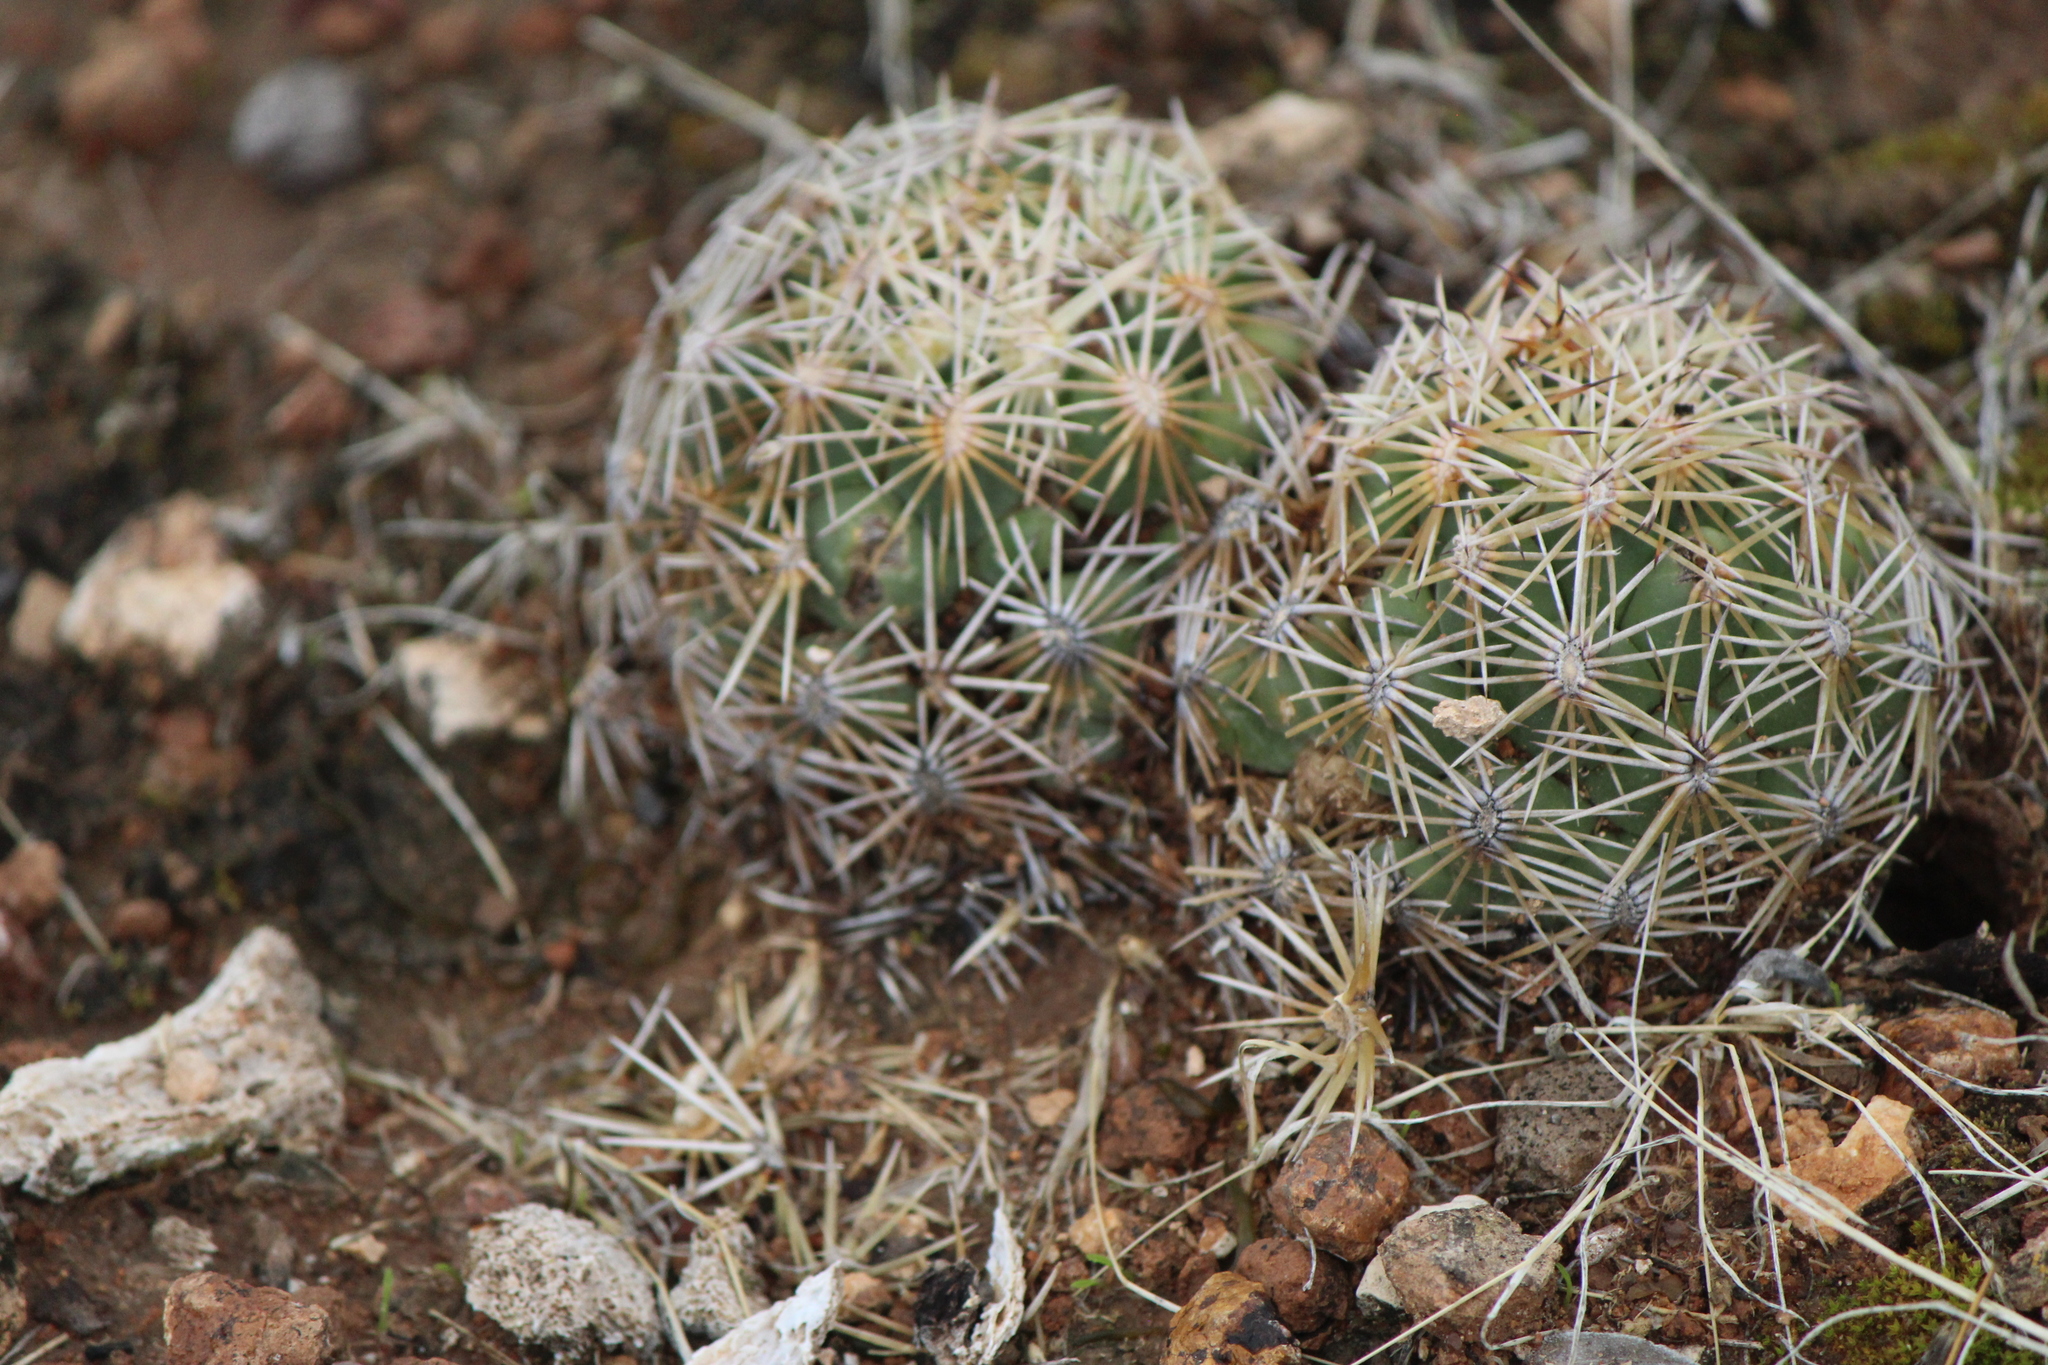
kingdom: Plantae
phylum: Tracheophyta
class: Magnoliopsida
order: Caryophyllales
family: Cactaceae
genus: Coryphantha
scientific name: Coryphantha cornifera
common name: Rhinoceros cactus
